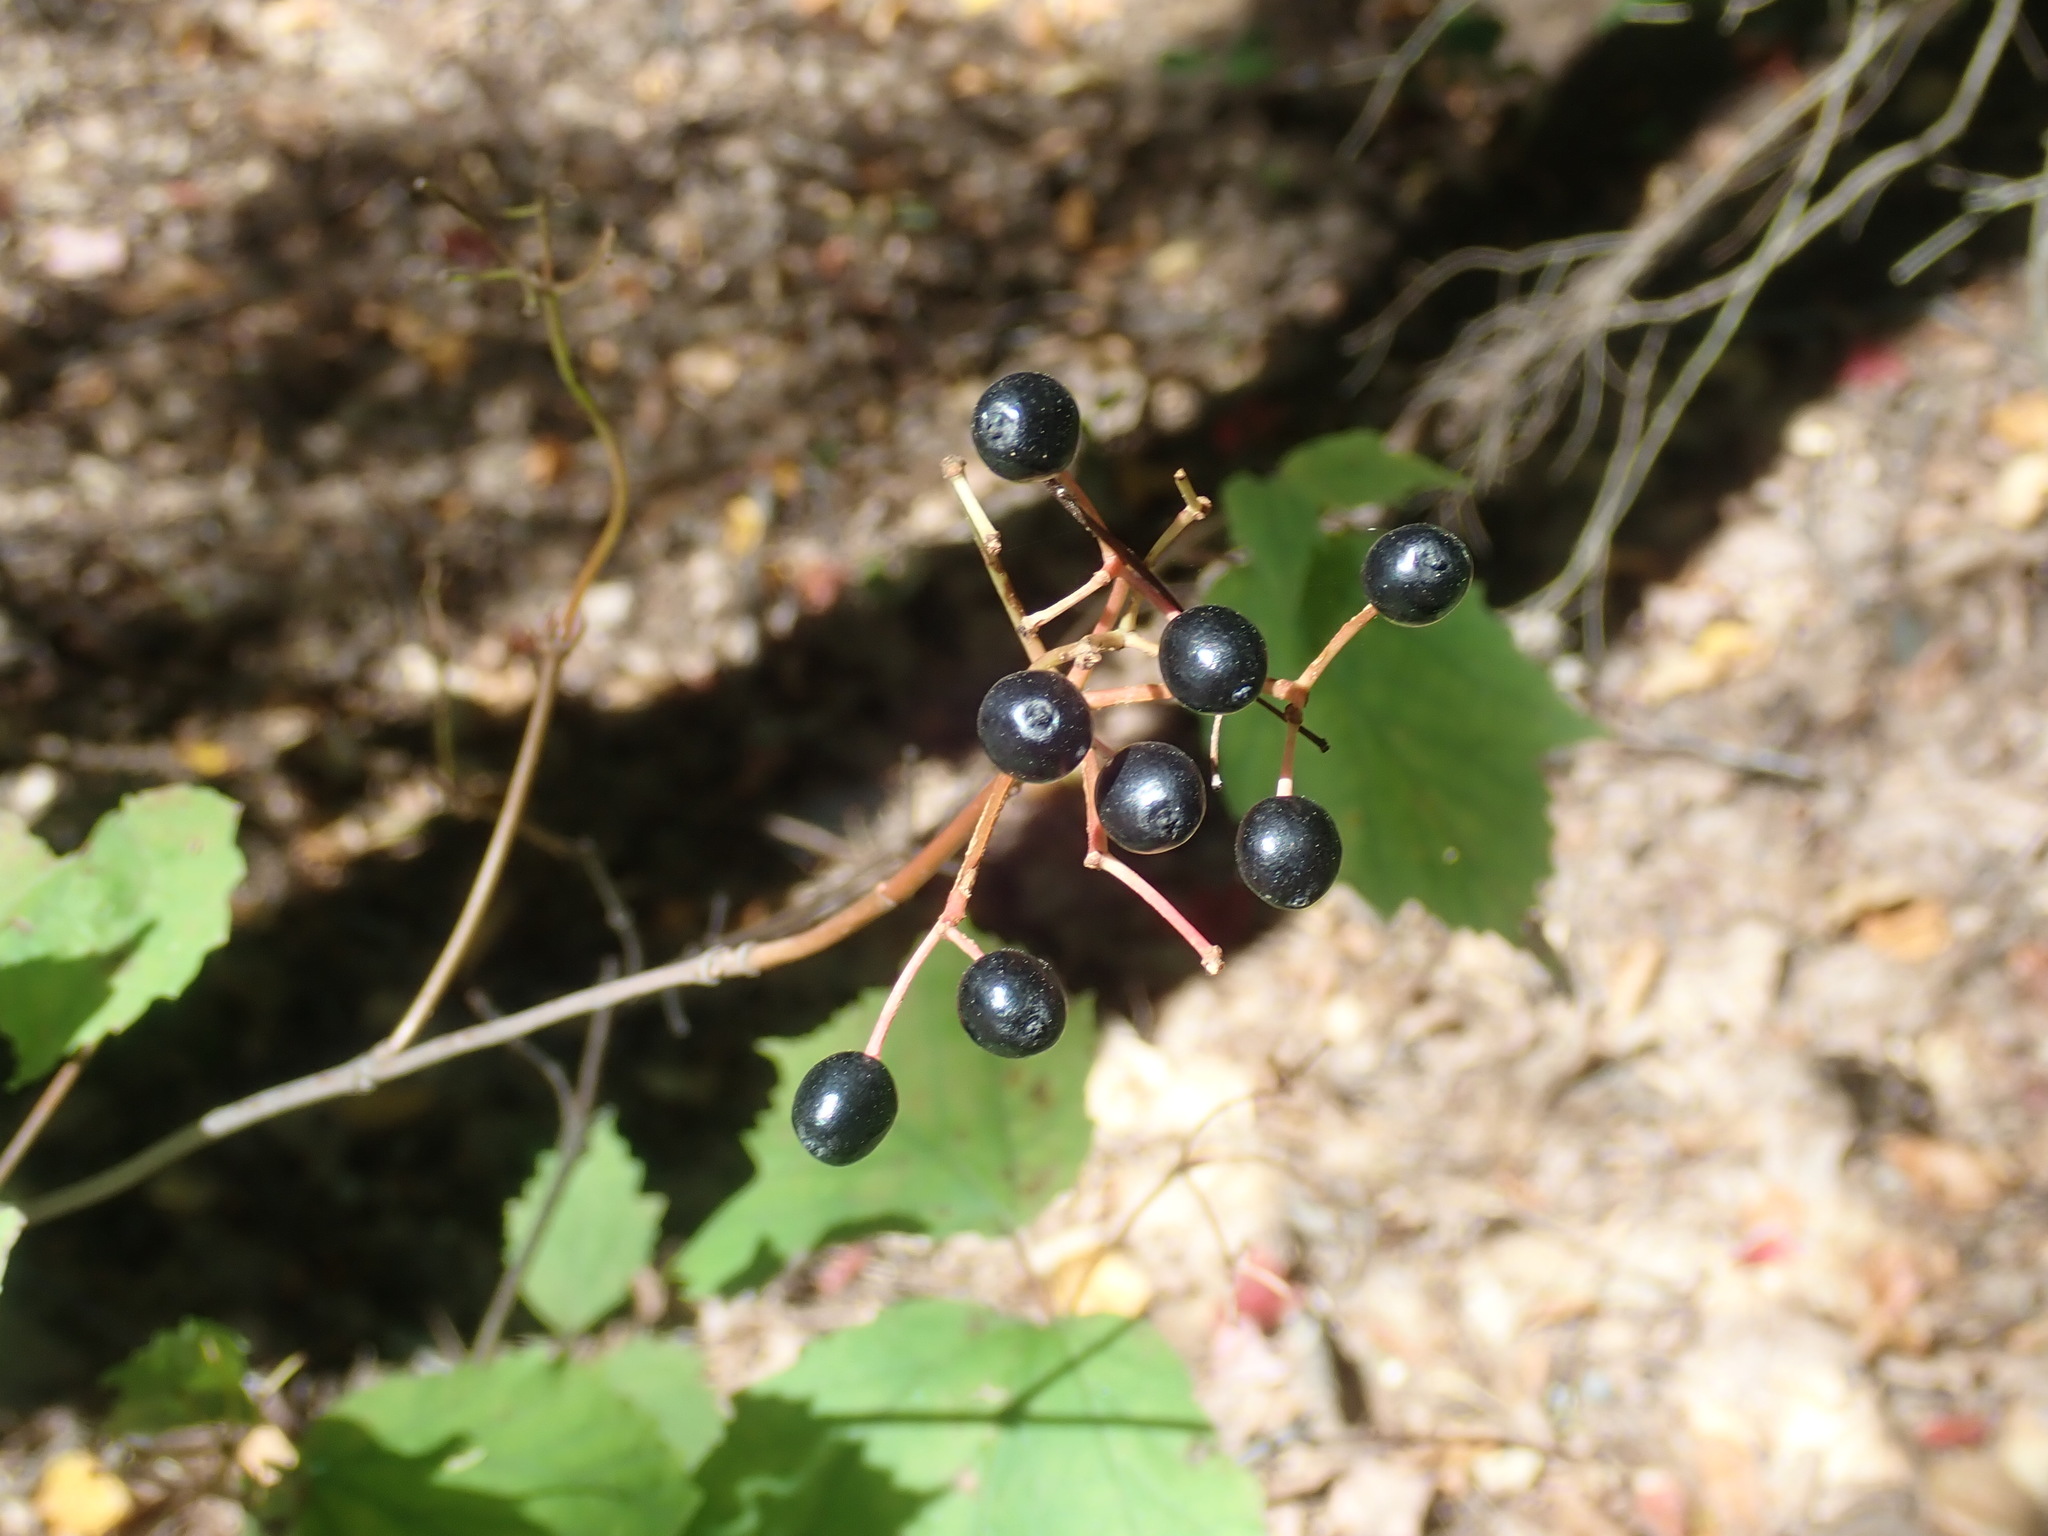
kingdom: Plantae
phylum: Tracheophyta
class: Magnoliopsida
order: Dipsacales
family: Viburnaceae
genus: Viburnum
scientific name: Viburnum acerifolium
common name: Dockmackie
